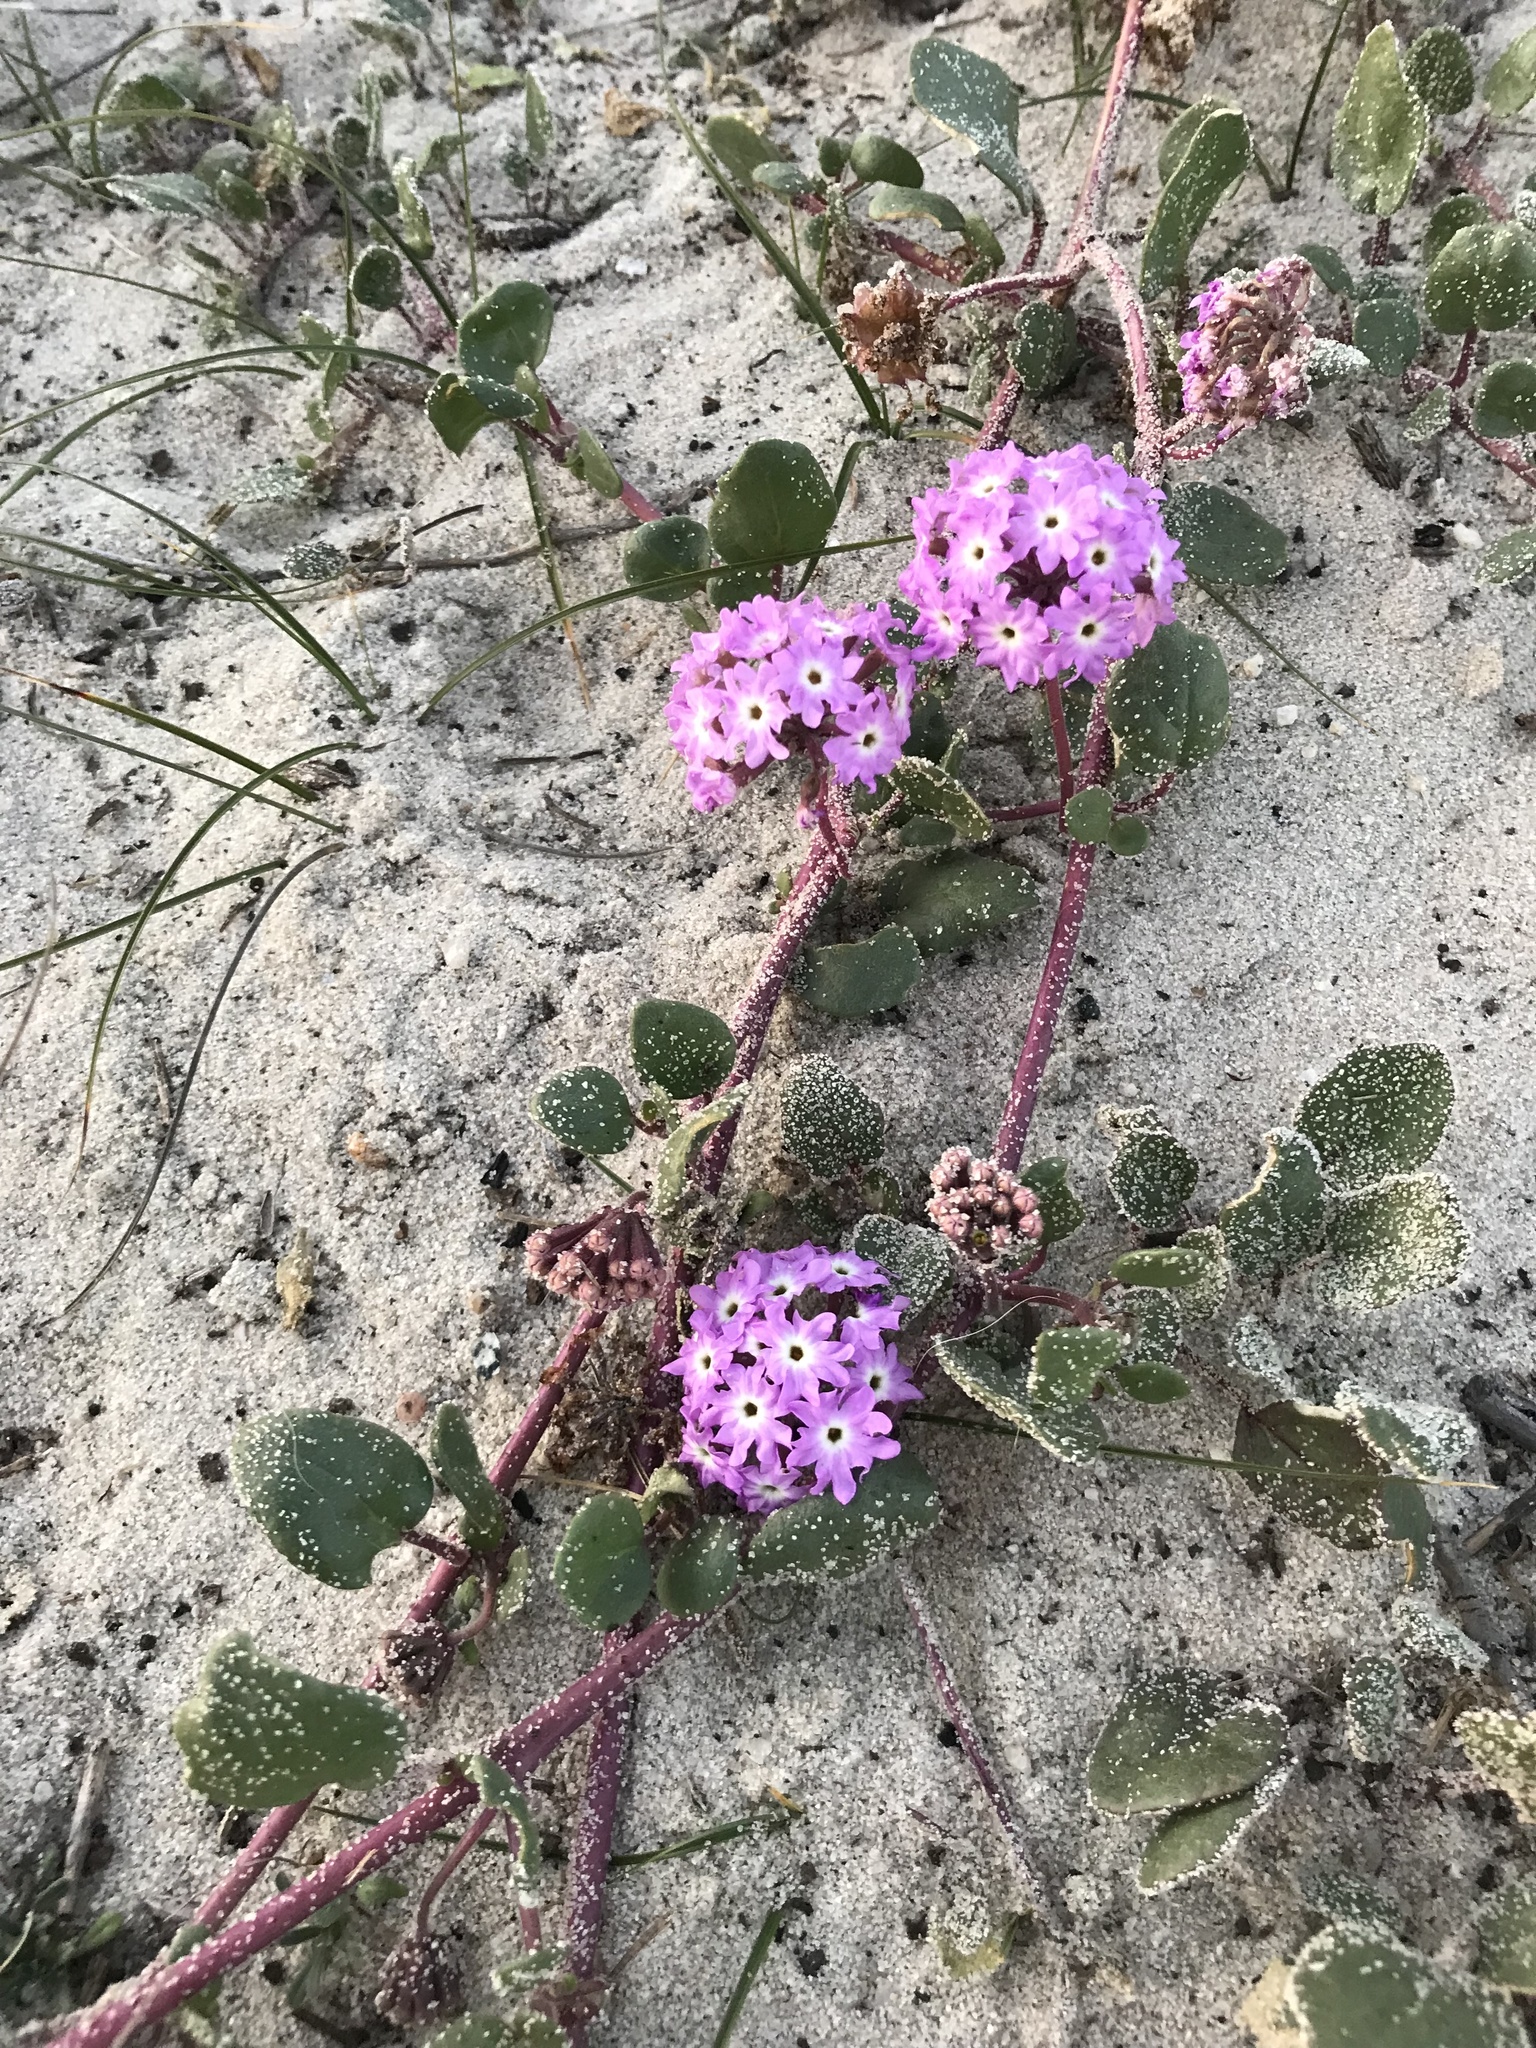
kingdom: Plantae
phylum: Tracheophyta
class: Magnoliopsida
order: Caryophyllales
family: Nyctaginaceae
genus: Abronia
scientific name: Abronia umbellata
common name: Sand-verbena
